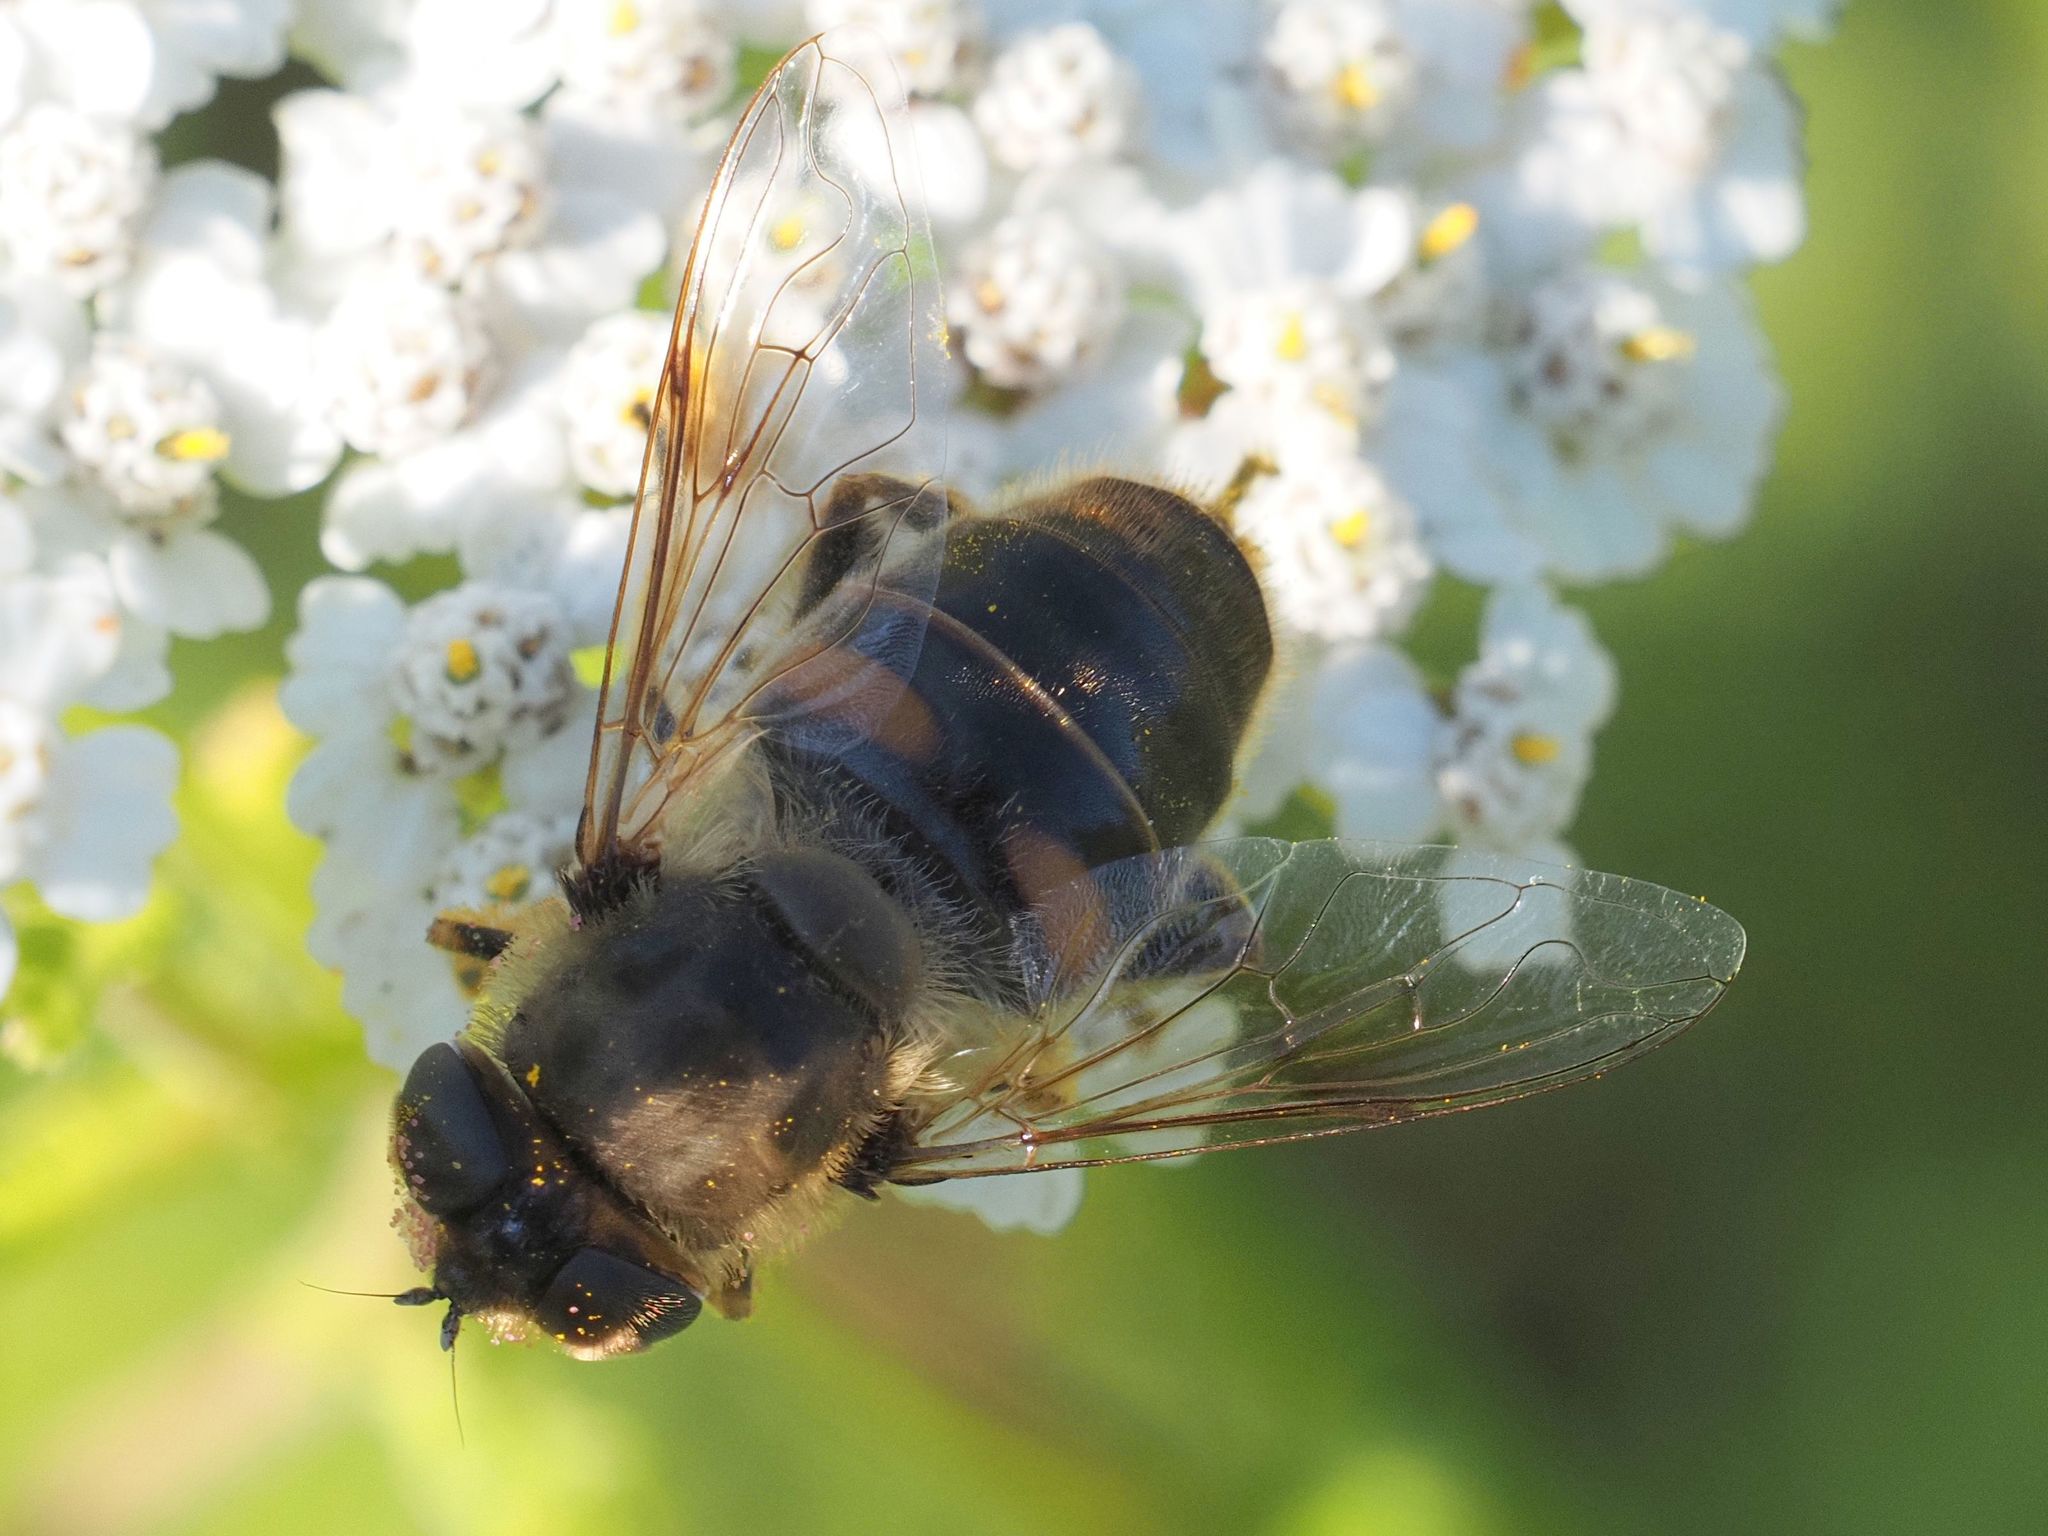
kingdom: Animalia
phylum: Arthropoda
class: Insecta
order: Diptera
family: Syrphidae
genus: Eristalis
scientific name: Eristalis tenax
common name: Drone fly
